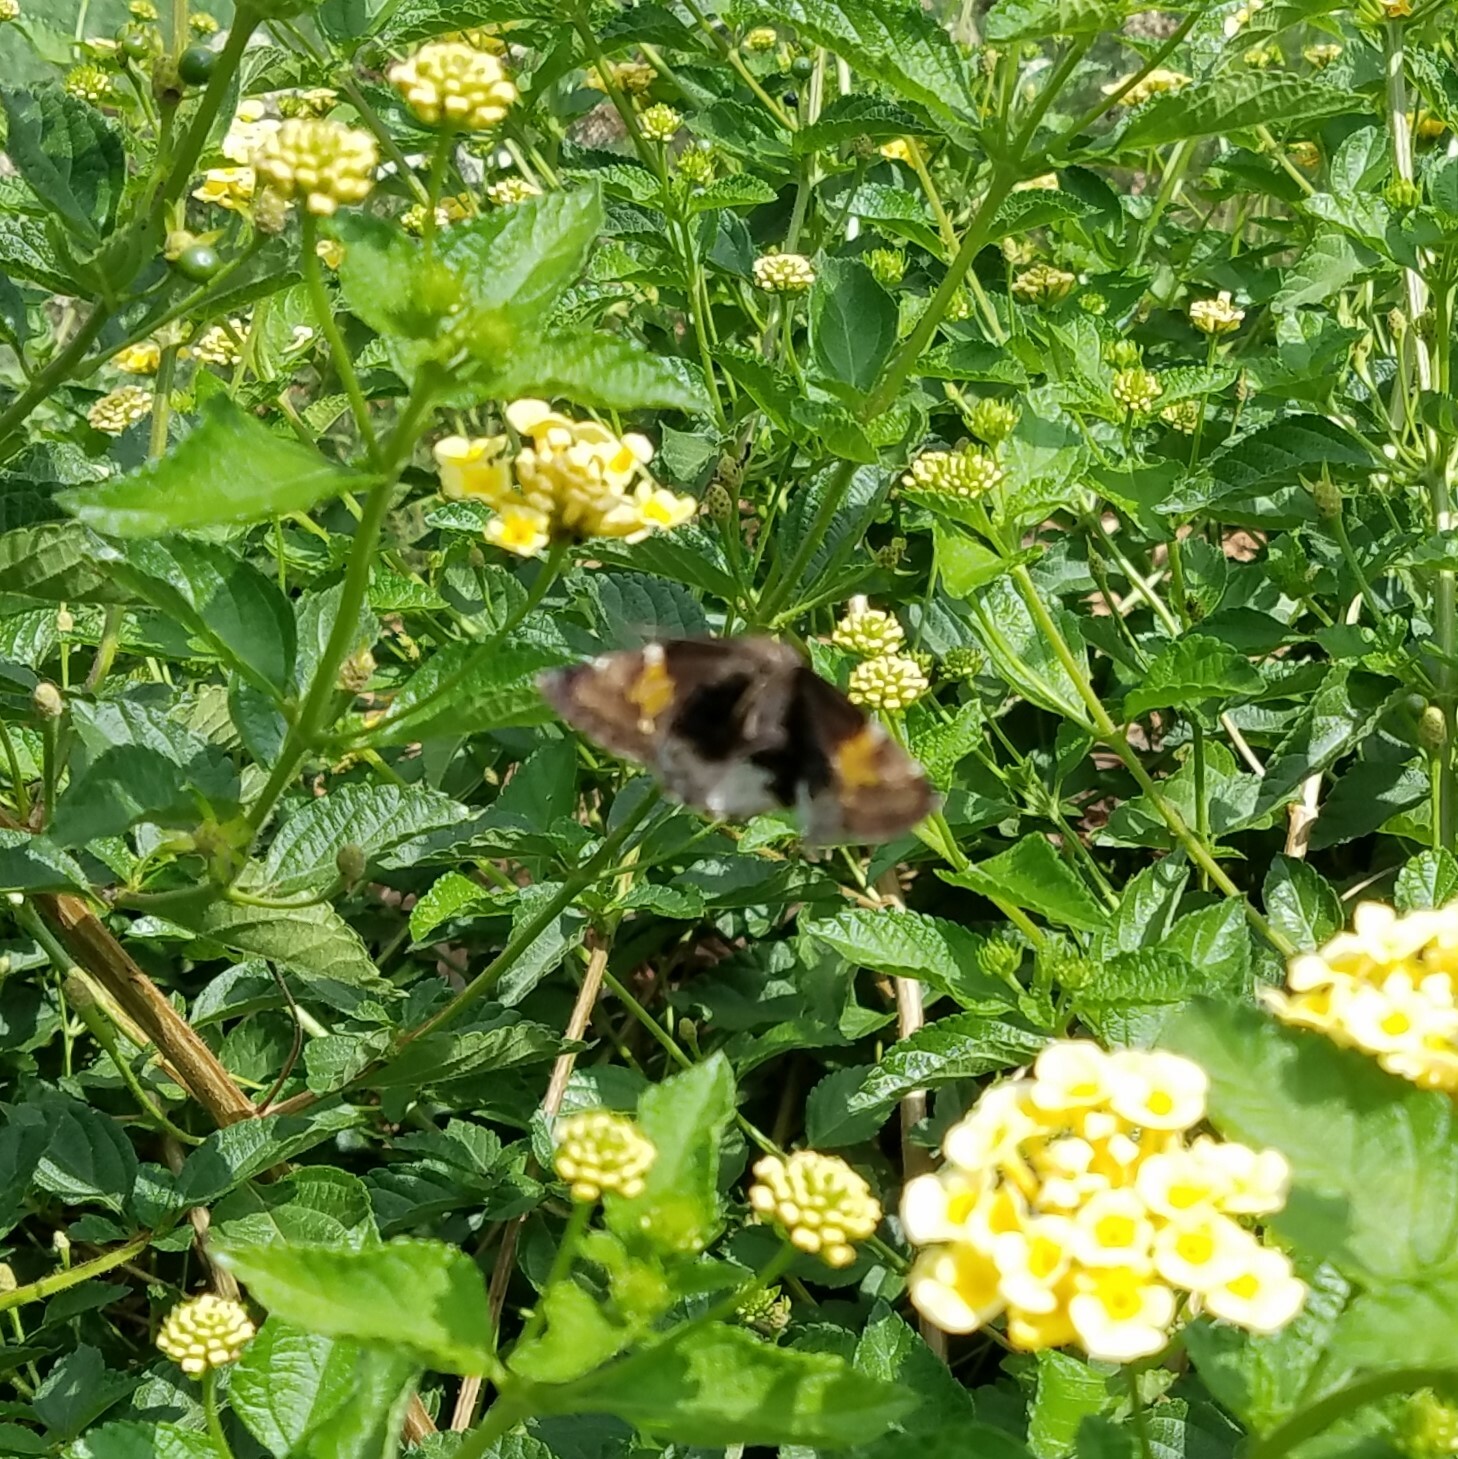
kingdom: Animalia
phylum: Arthropoda
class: Insecta
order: Lepidoptera
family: Hesperiidae
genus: Thorybes
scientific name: Thorybes lyciades
